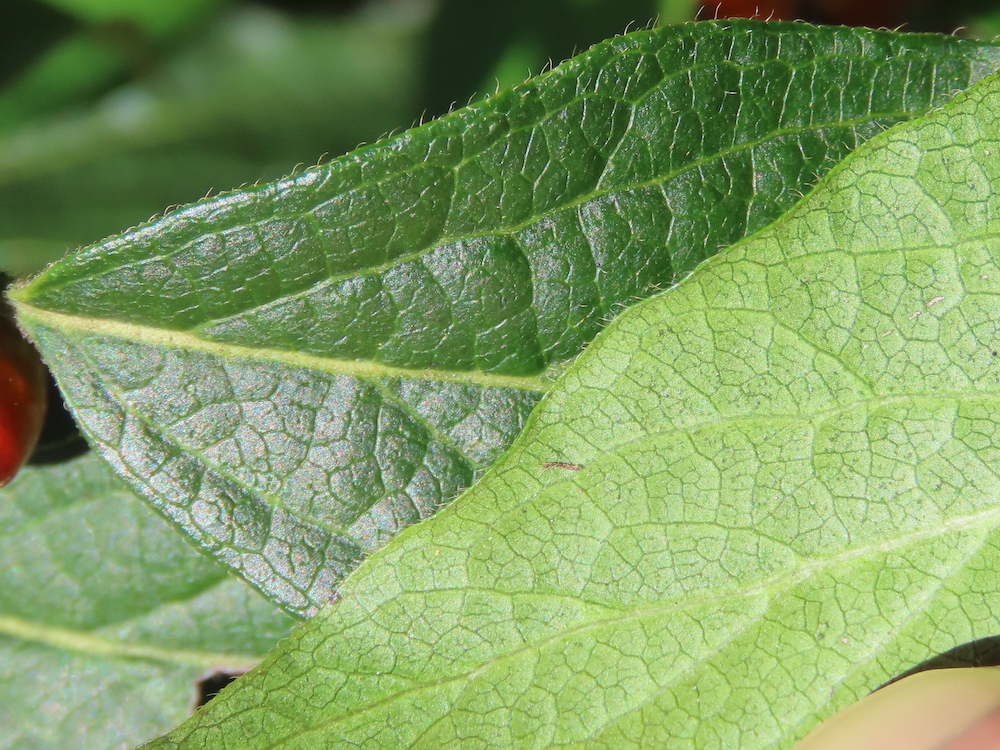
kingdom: Plantae
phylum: Tracheophyta
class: Magnoliopsida
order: Dipsacales
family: Caprifoliaceae
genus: Lonicera
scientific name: Lonicera maackii
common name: Amur honeysuckle
